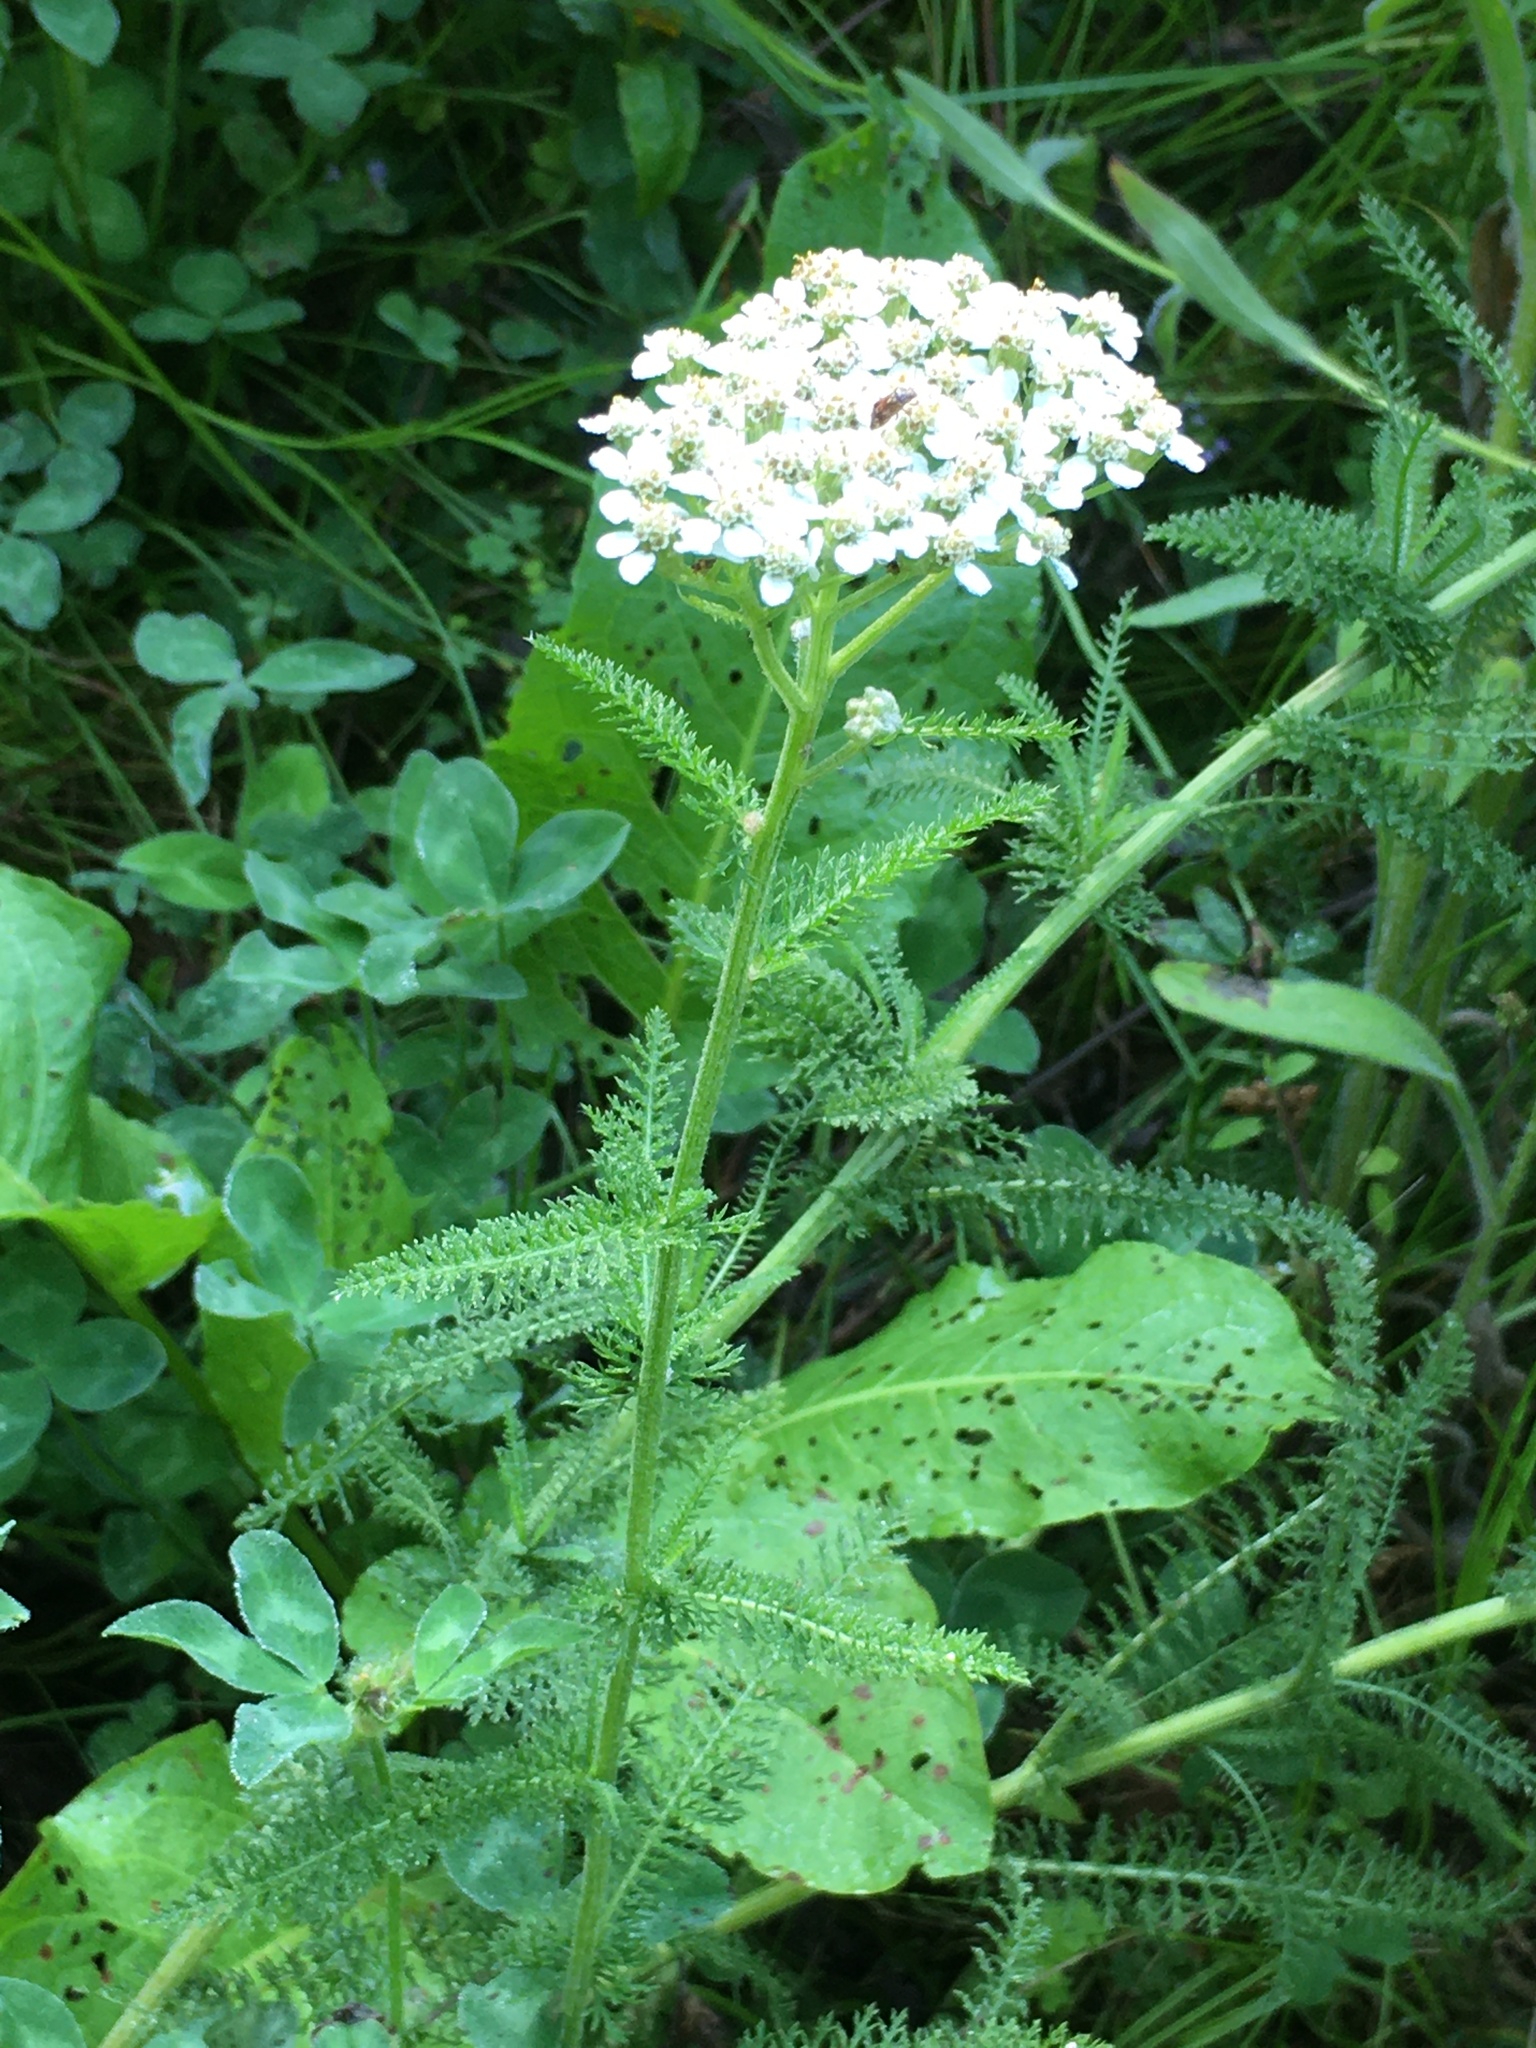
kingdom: Plantae
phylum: Tracheophyta
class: Magnoliopsida
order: Asterales
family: Asteraceae
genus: Achillea
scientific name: Achillea millefolium
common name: Yarrow
